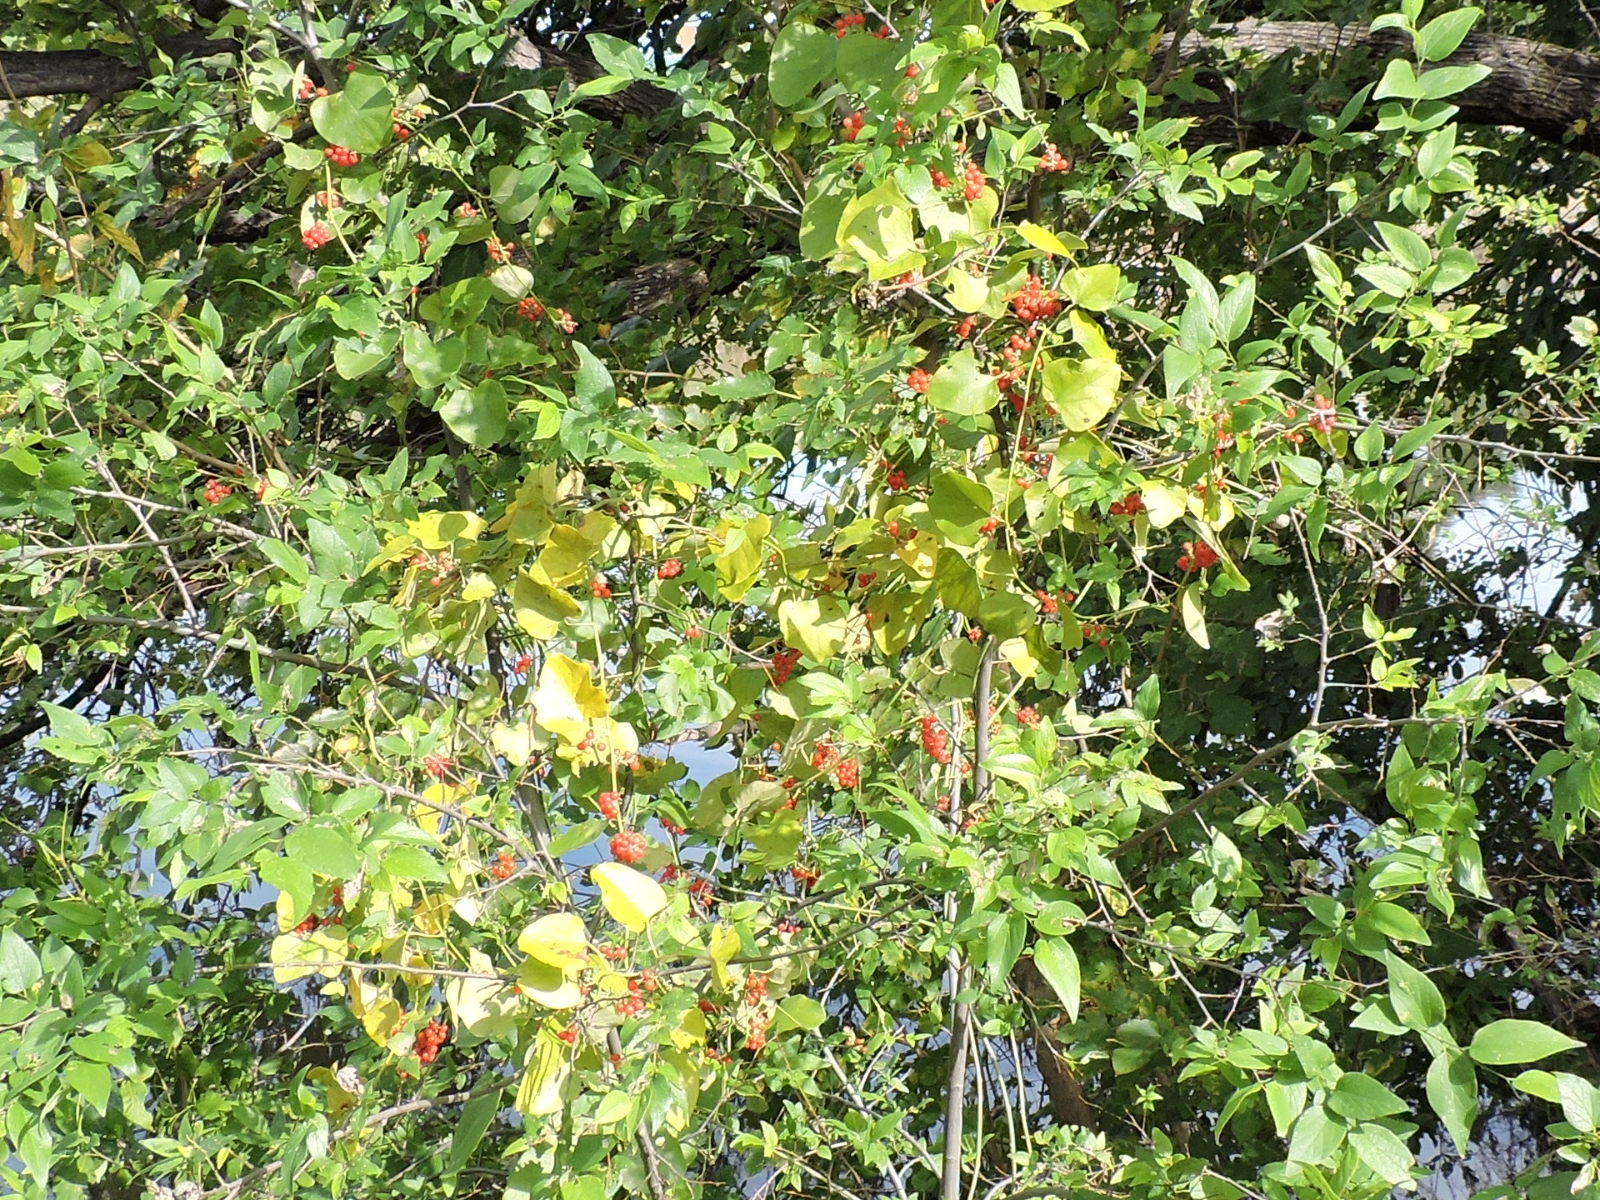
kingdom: Plantae
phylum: Tracheophyta
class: Magnoliopsida
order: Ranunculales
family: Menispermaceae
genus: Cocculus
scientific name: Cocculus carolinus
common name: Carolina moonseed
